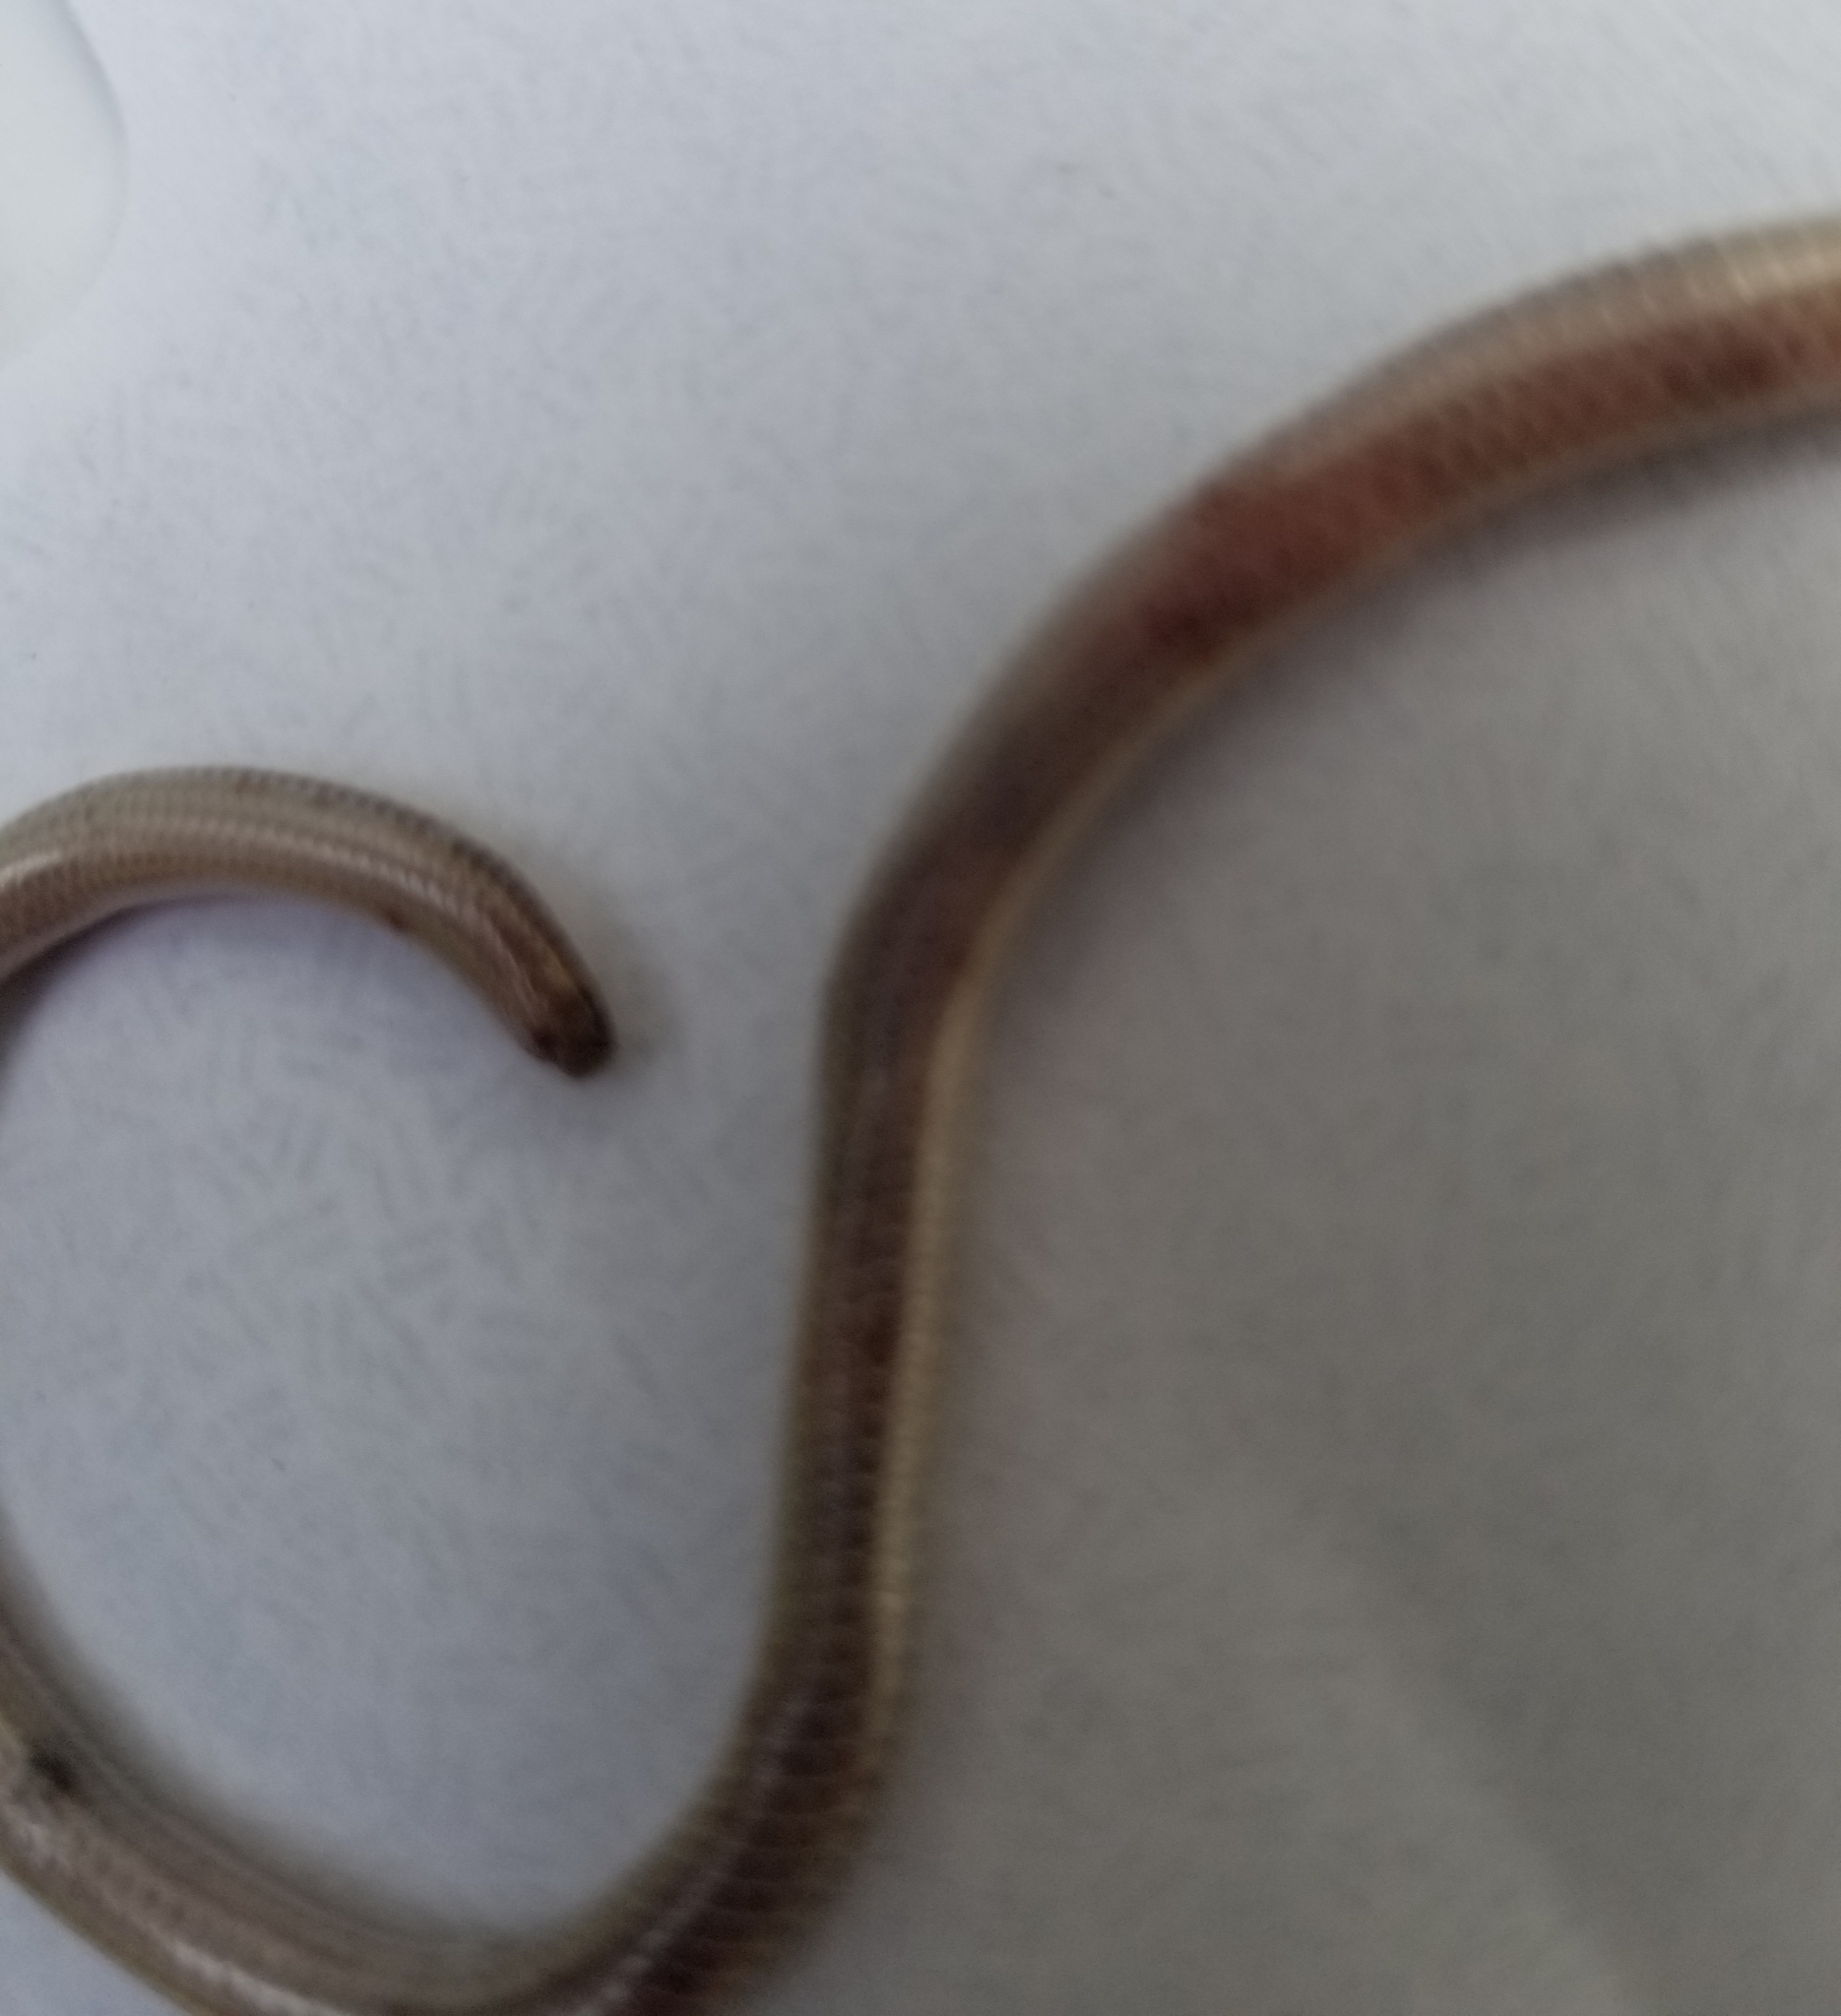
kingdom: Animalia
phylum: Chordata
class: Squamata
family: Leptotyphlopidae
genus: Rena
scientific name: Rena dulcis
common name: Texas blind snake
